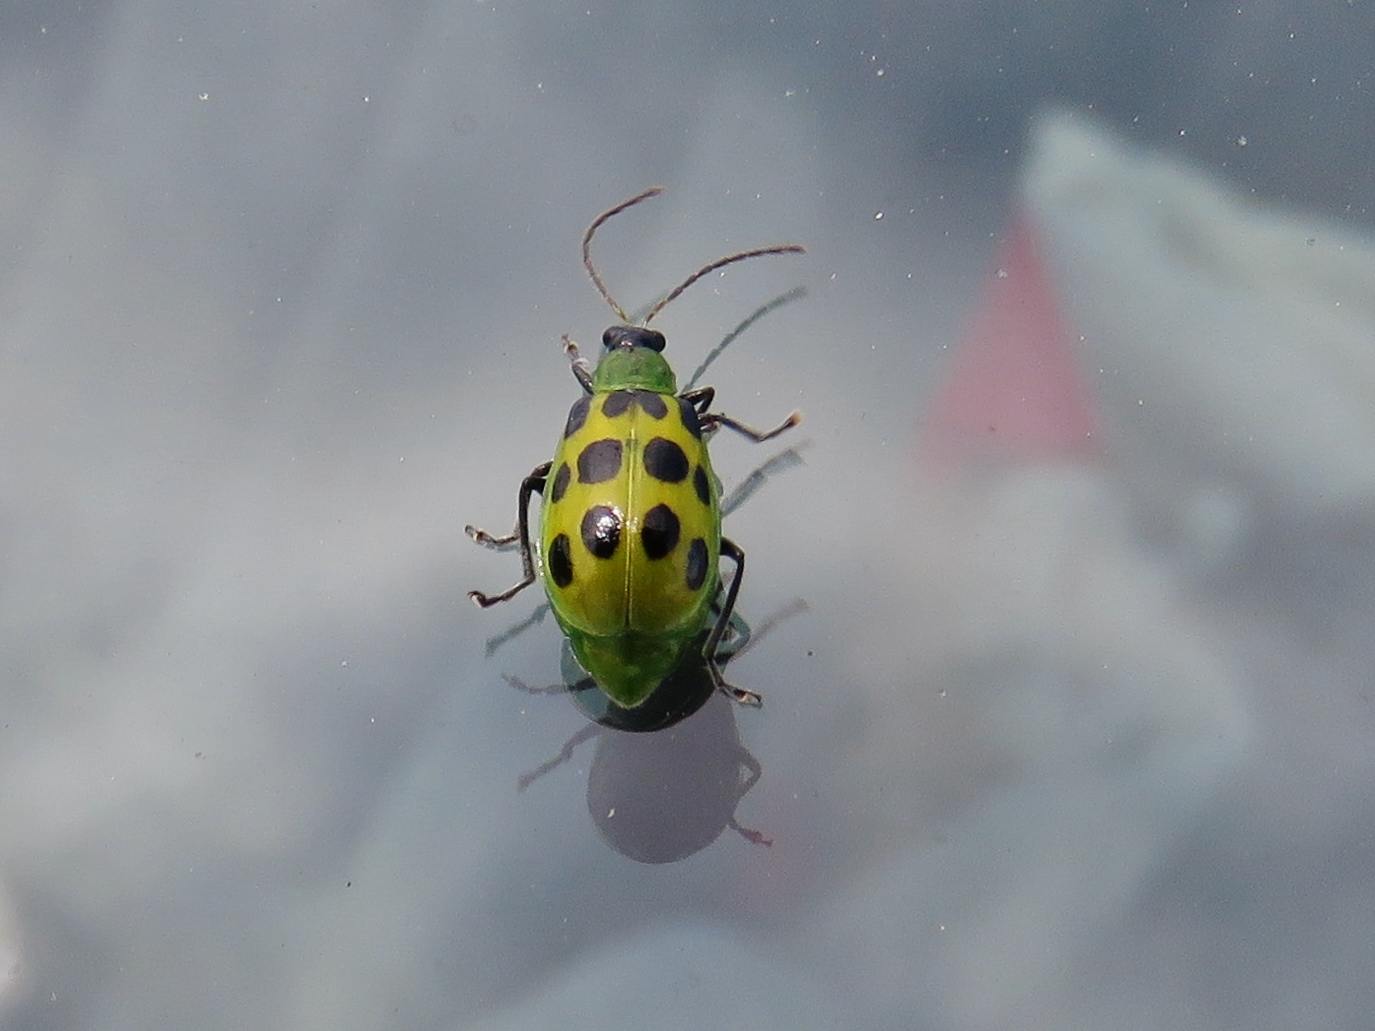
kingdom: Animalia
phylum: Arthropoda
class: Insecta
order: Coleoptera
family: Chrysomelidae
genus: Diabrotica
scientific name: Diabrotica undecimpunctata
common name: Spotted cucumber beetle
